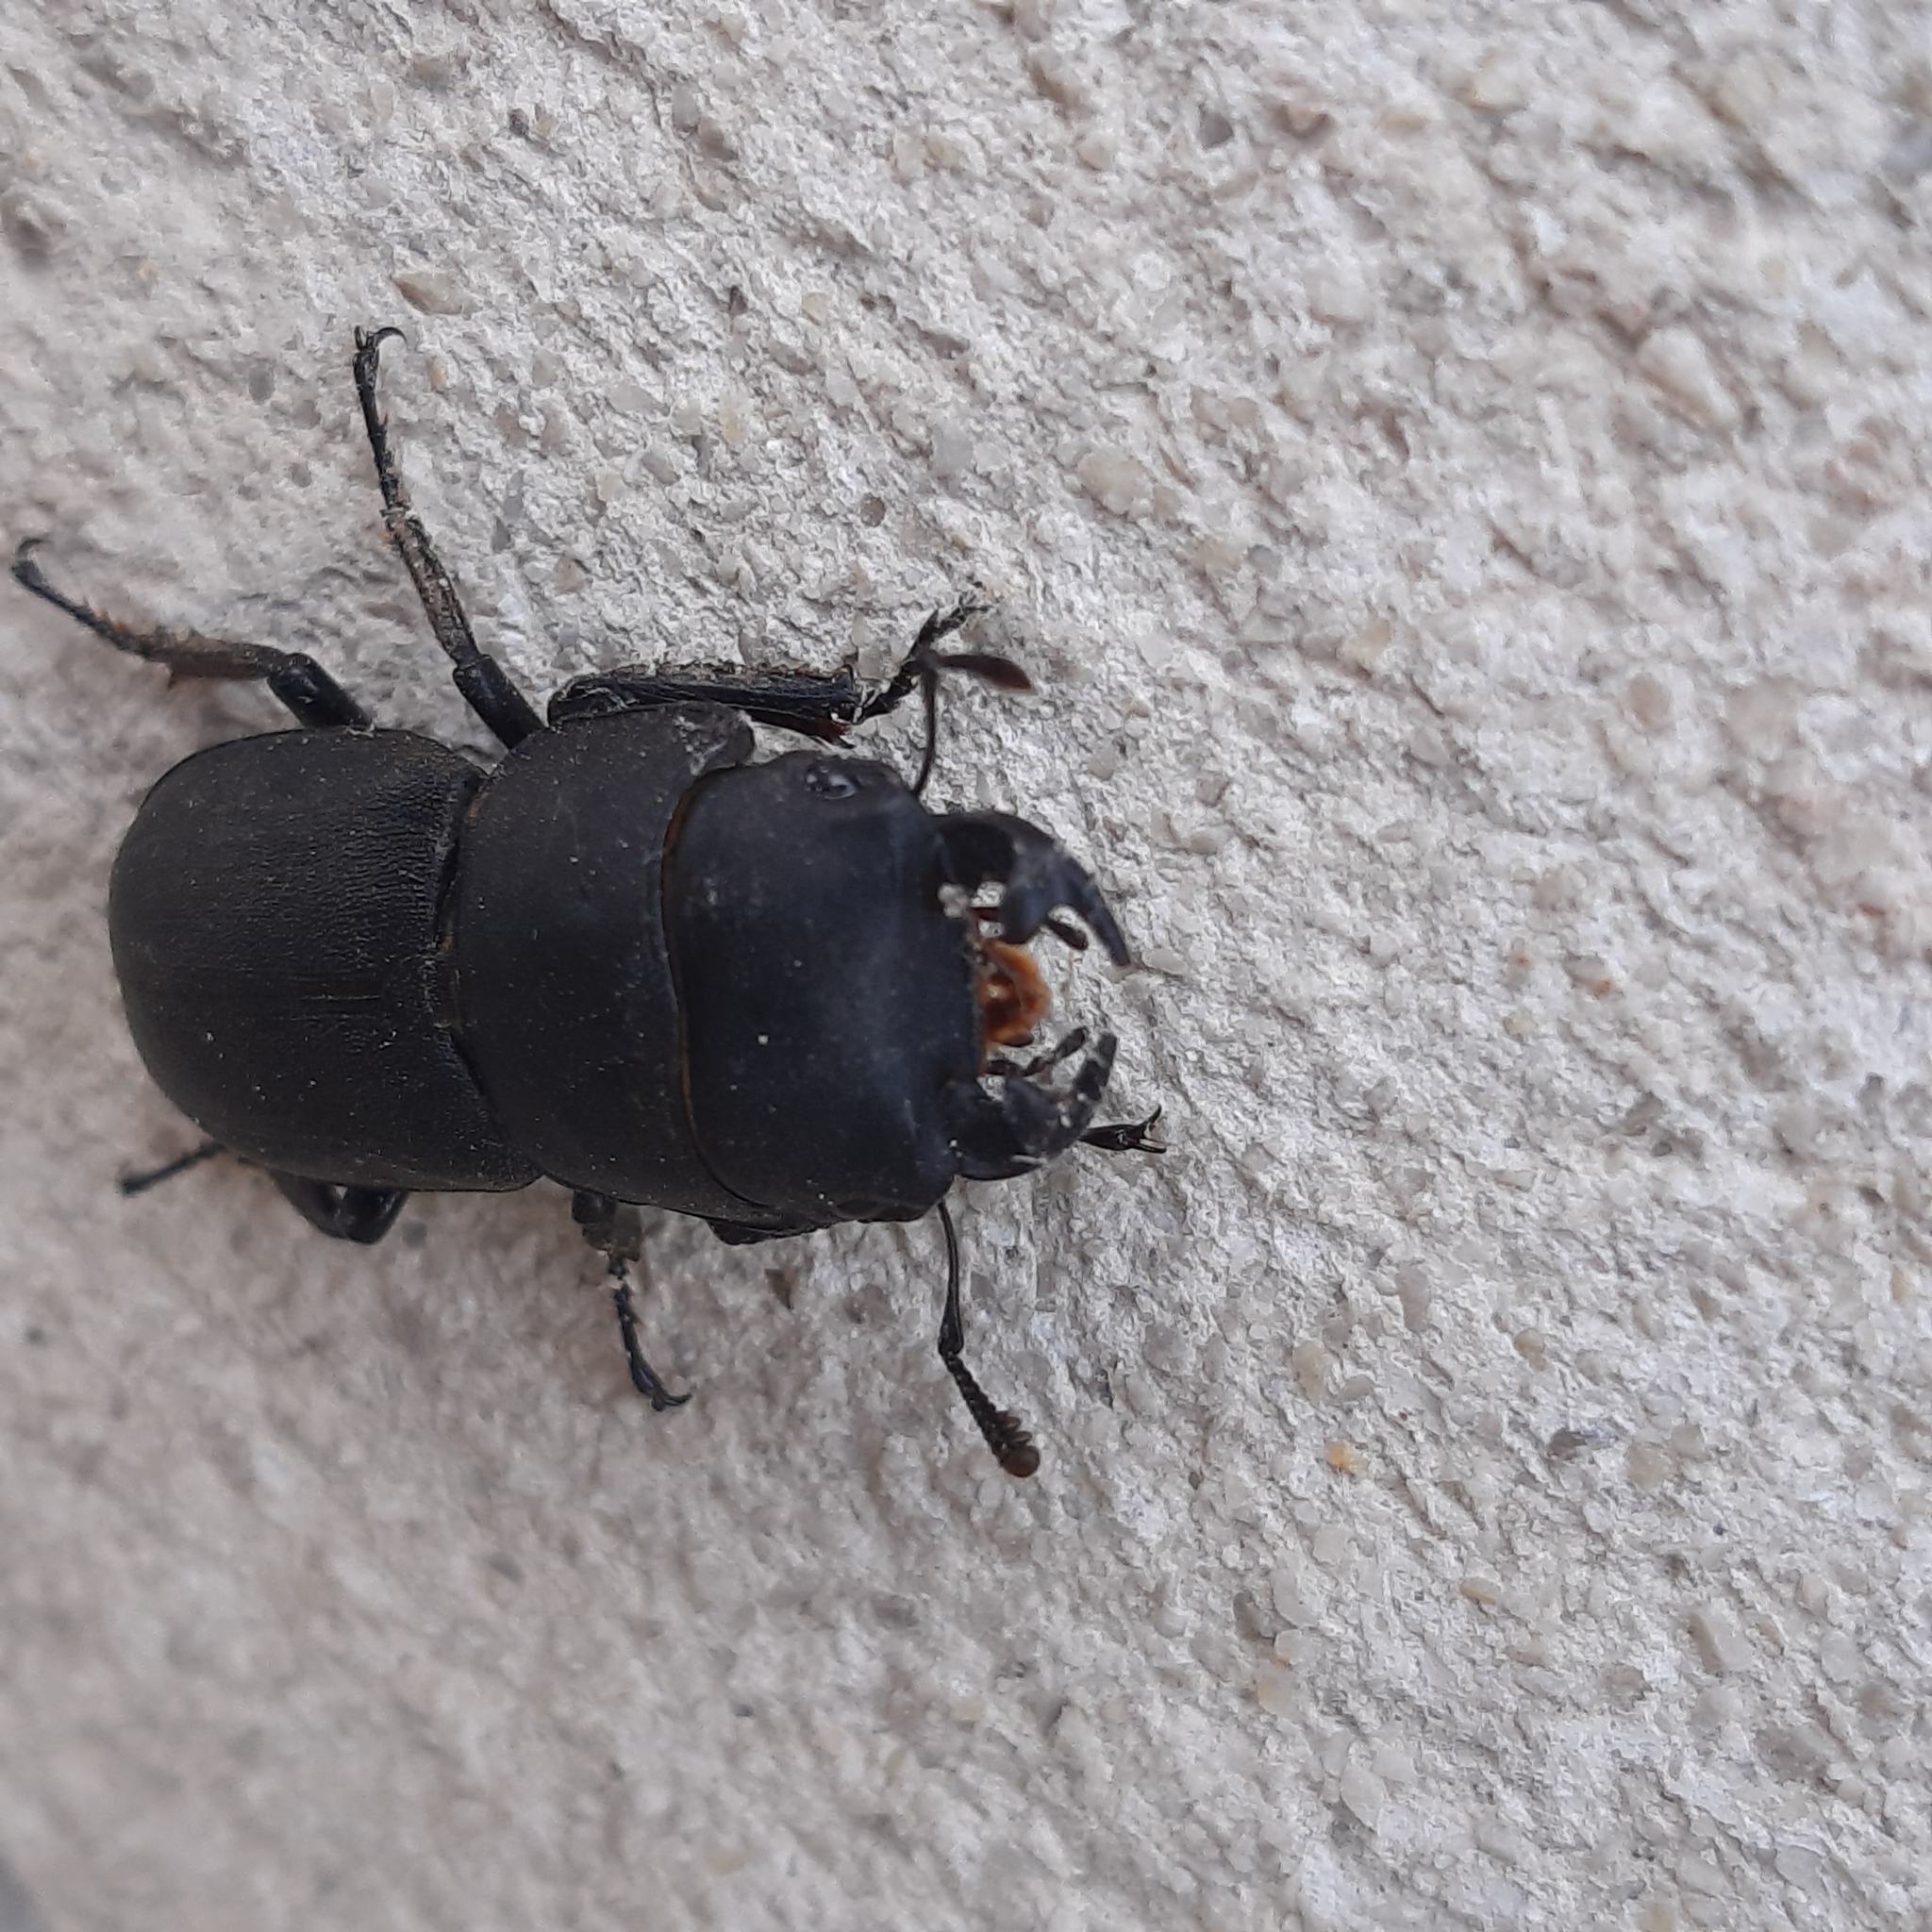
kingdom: Animalia
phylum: Arthropoda
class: Insecta
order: Coleoptera
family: Lucanidae
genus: Dorcus
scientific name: Dorcus parallelipipedus
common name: Lesser stag beetle
